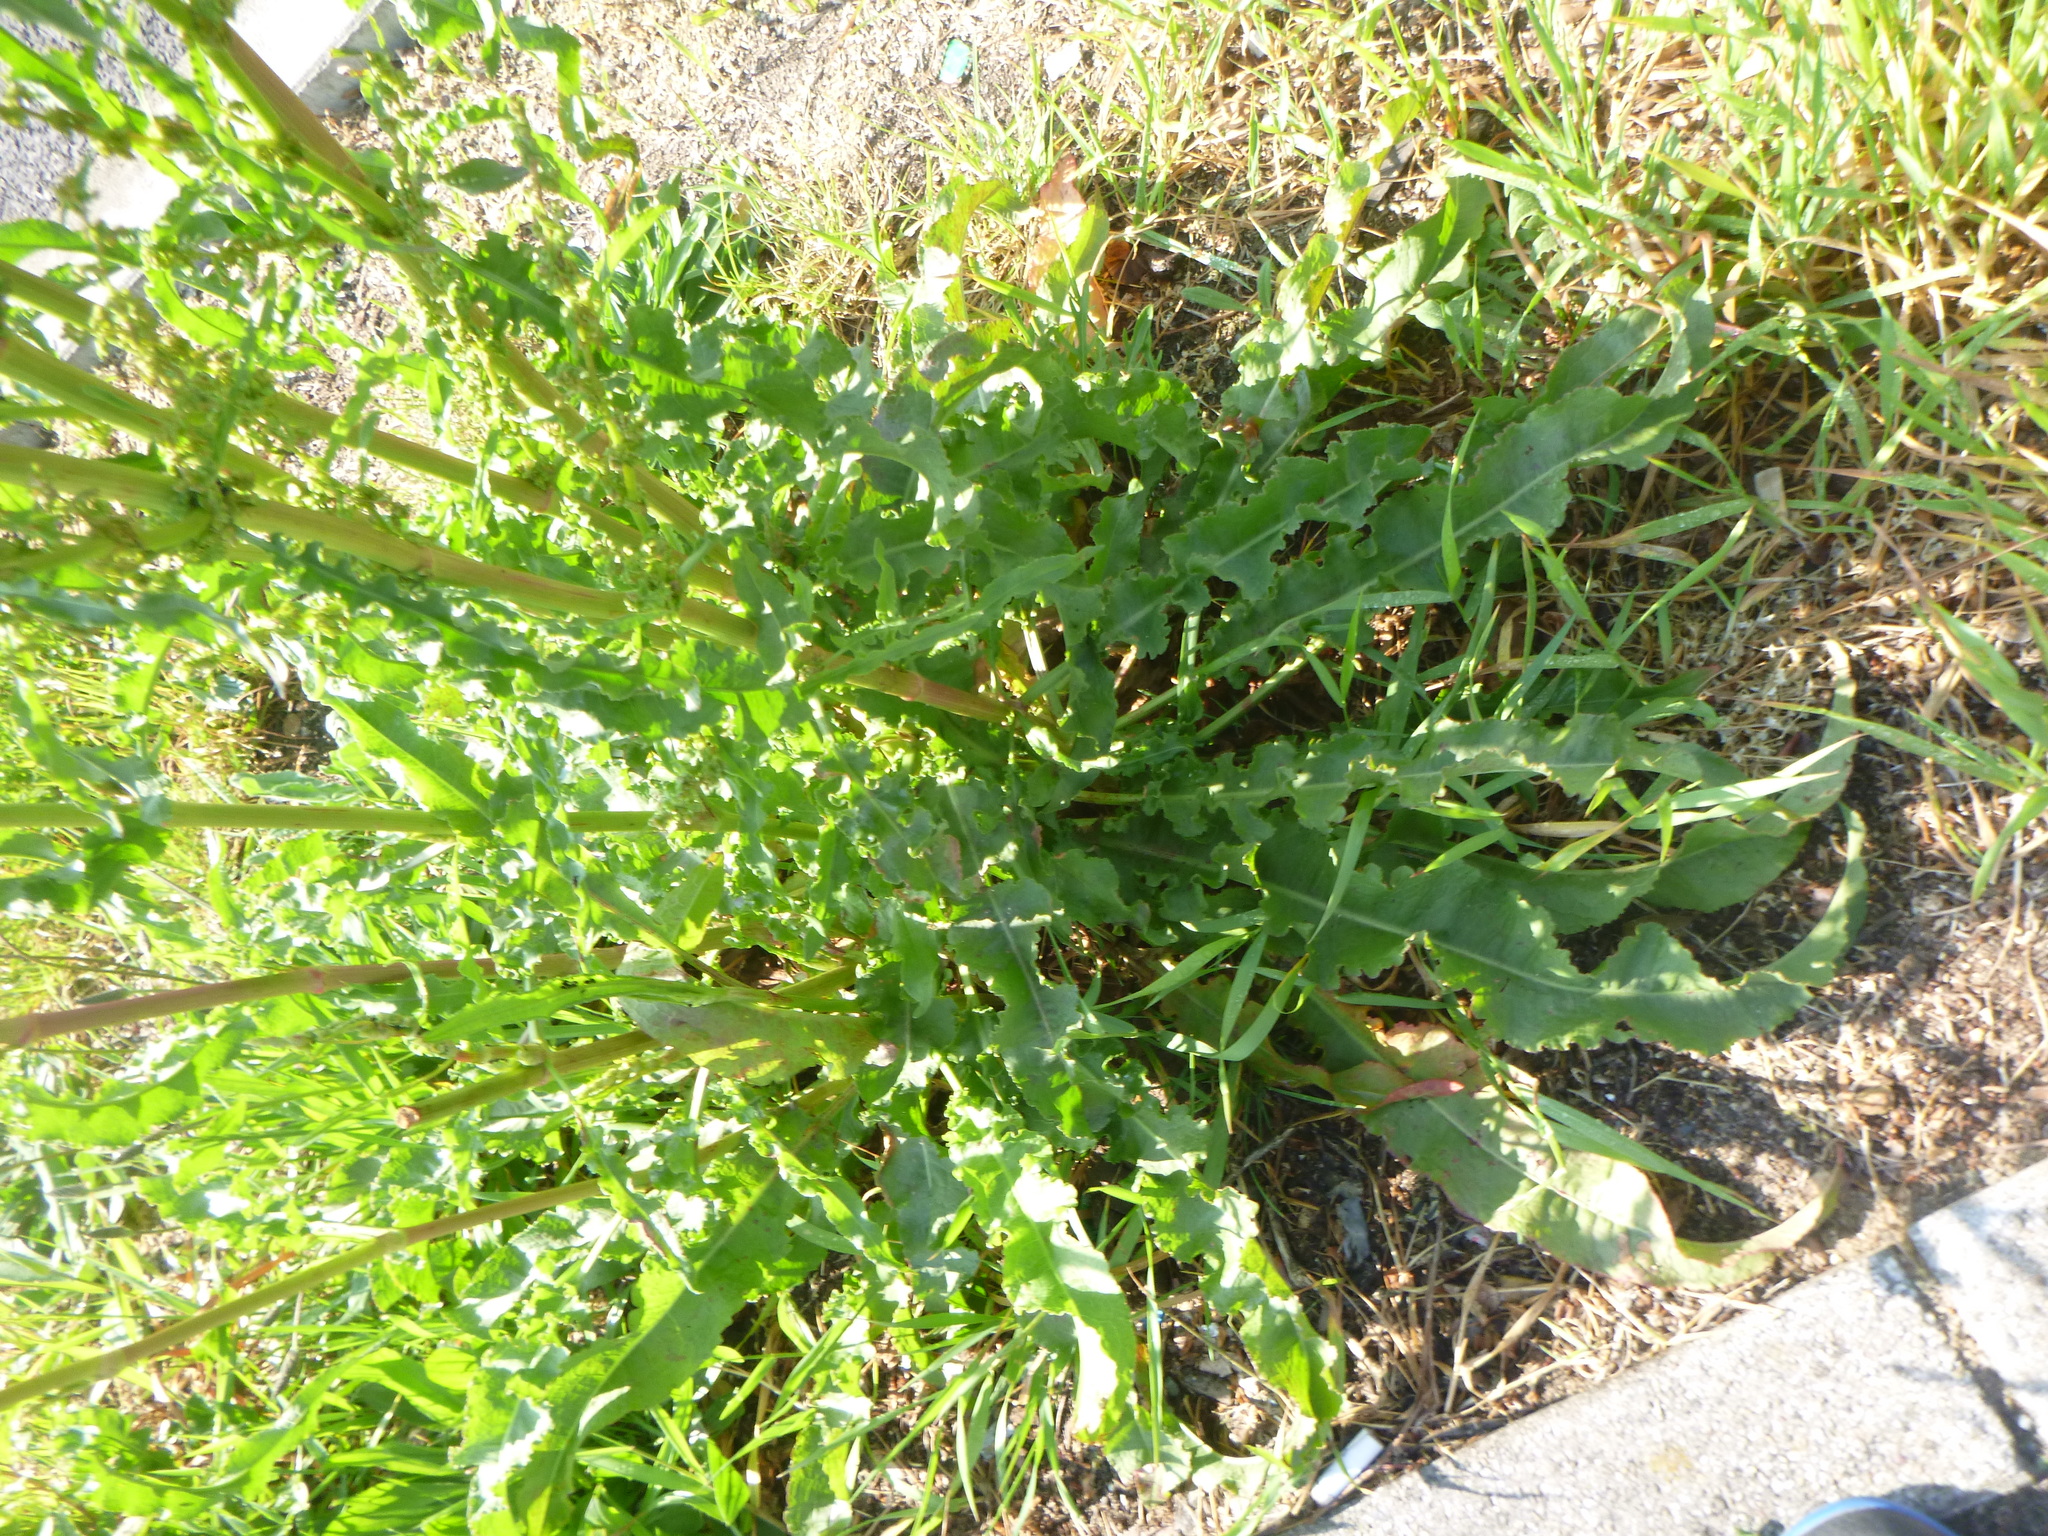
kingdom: Plantae
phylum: Tracheophyta
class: Magnoliopsida
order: Caryophyllales
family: Polygonaceae
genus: Rumex
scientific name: Rumex crispus
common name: Curled dock
